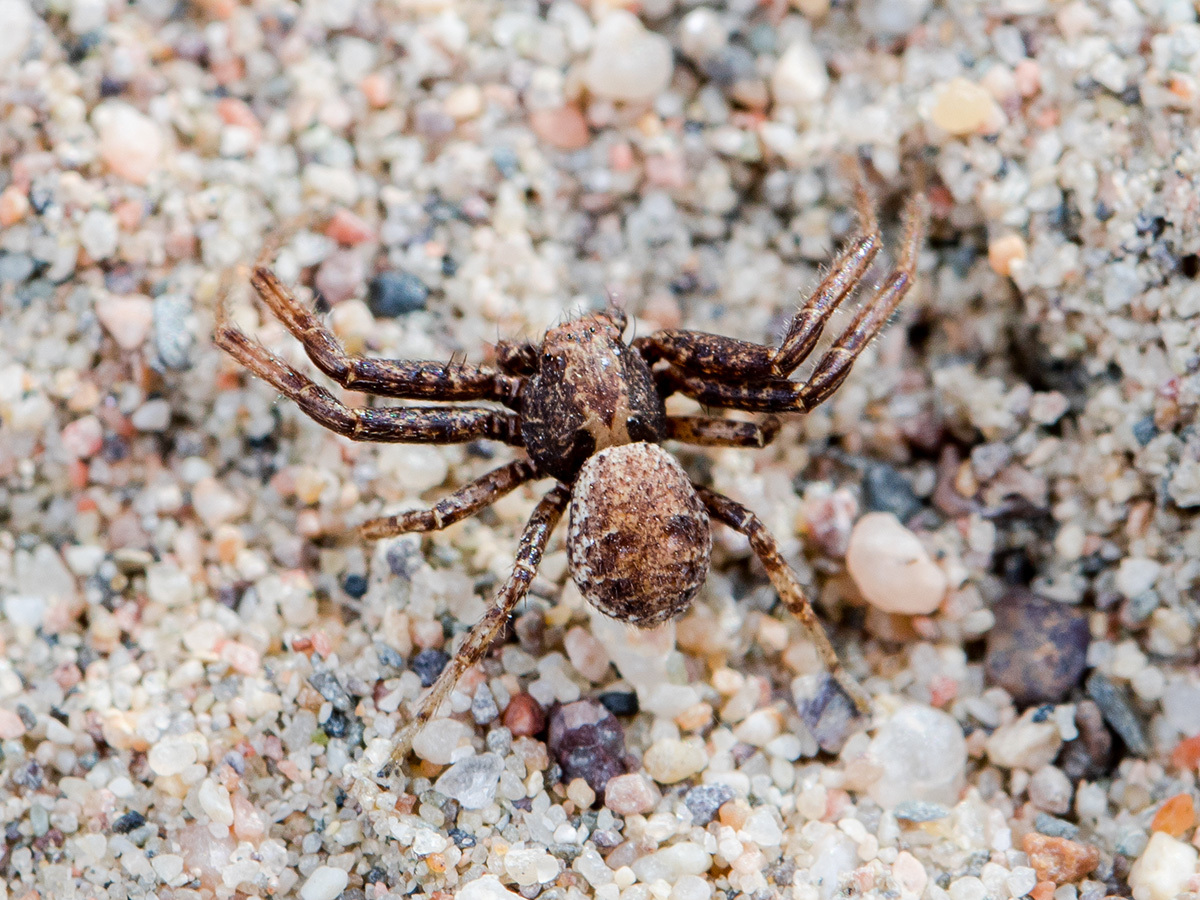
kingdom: Animalia
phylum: Arthropoda
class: Arachnida
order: Araneae
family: Thomisidae
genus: Xysticus
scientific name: Xysticus lapidarius
